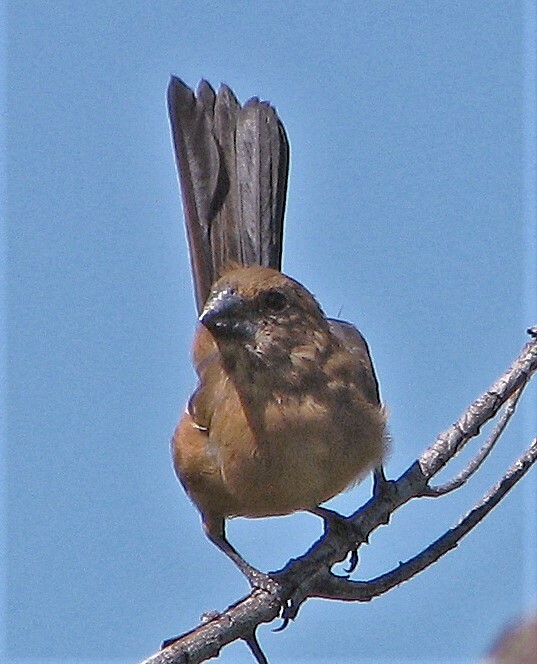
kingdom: Animalia
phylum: Chordata
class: Aves
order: Passeriformes
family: Cardinalidae
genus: Cyanoloxia
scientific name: Cyanoloxia brissonii
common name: Ultramarine grosbeak
